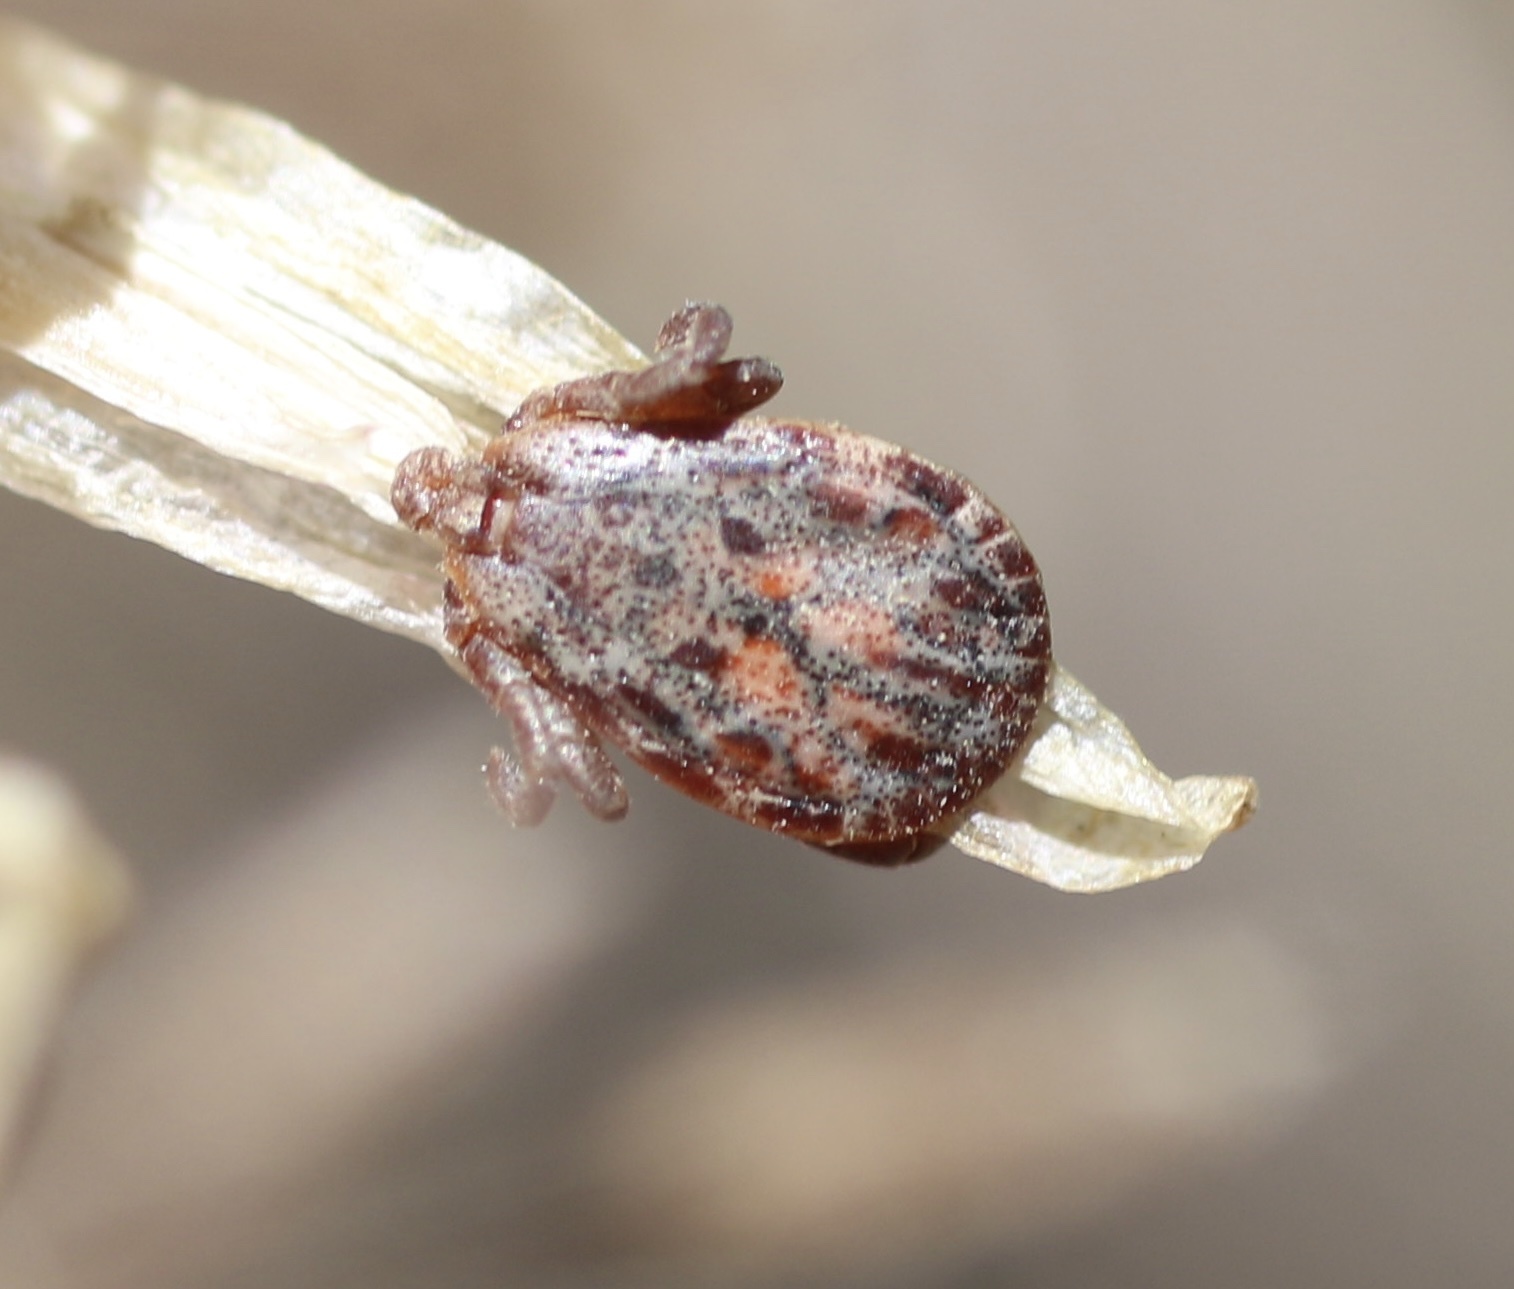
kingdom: Animalia
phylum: Arthropoda
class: Arachnida
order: Ixodida
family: Ixodidae
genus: Dermacentor
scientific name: Dermacentor occidentalis
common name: Net tick
